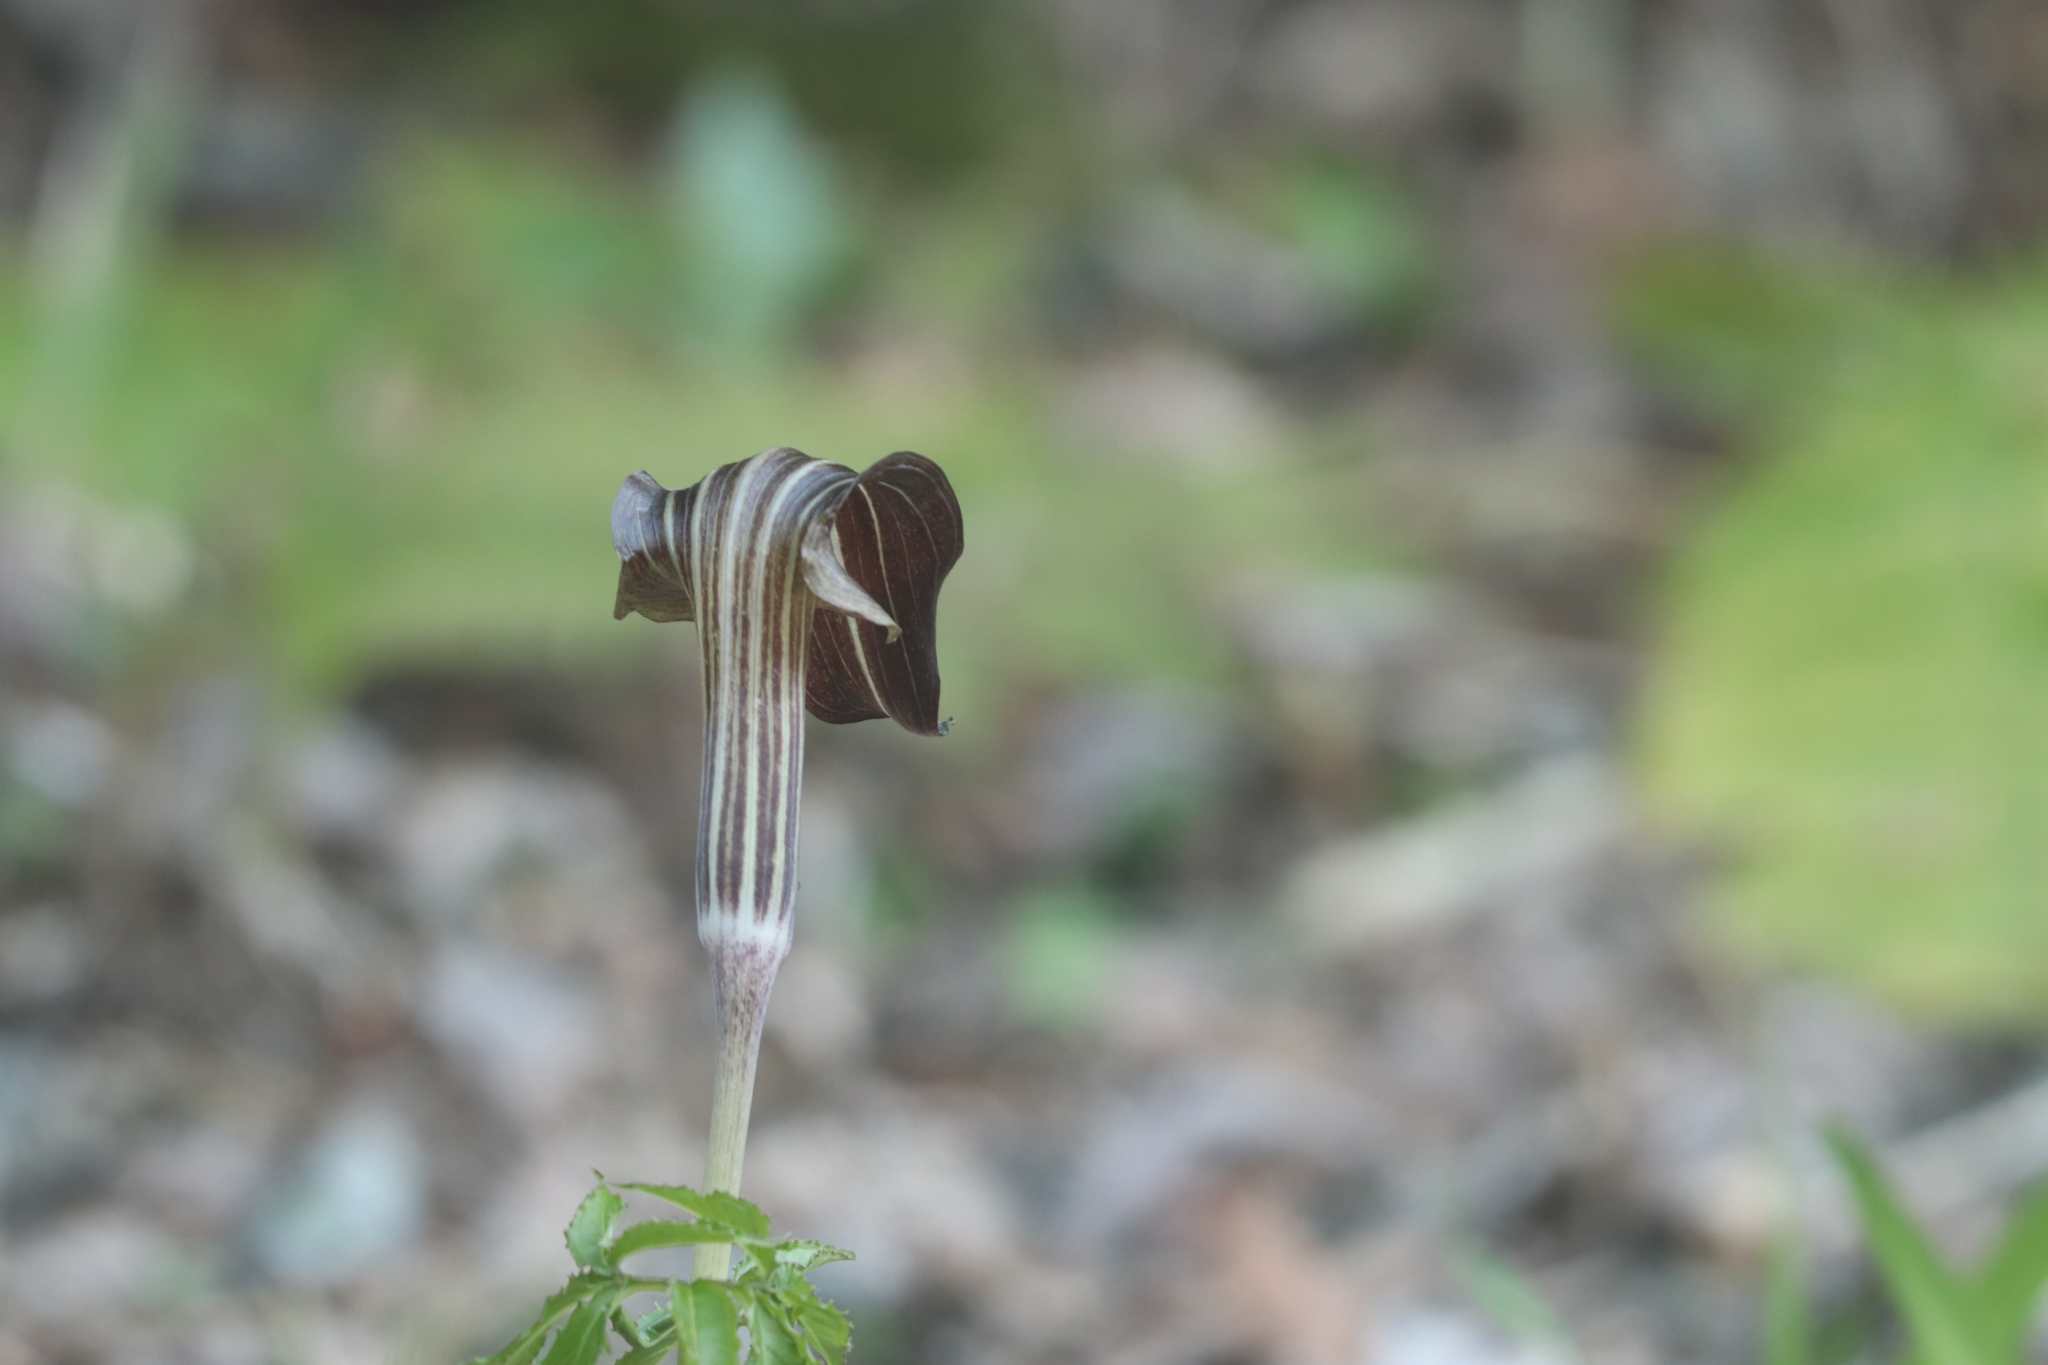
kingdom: Plantae
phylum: Tracheophyta
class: Liliopsida
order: Alismatales
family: Araceae
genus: Arisaema
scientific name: Arisaema limbatum
